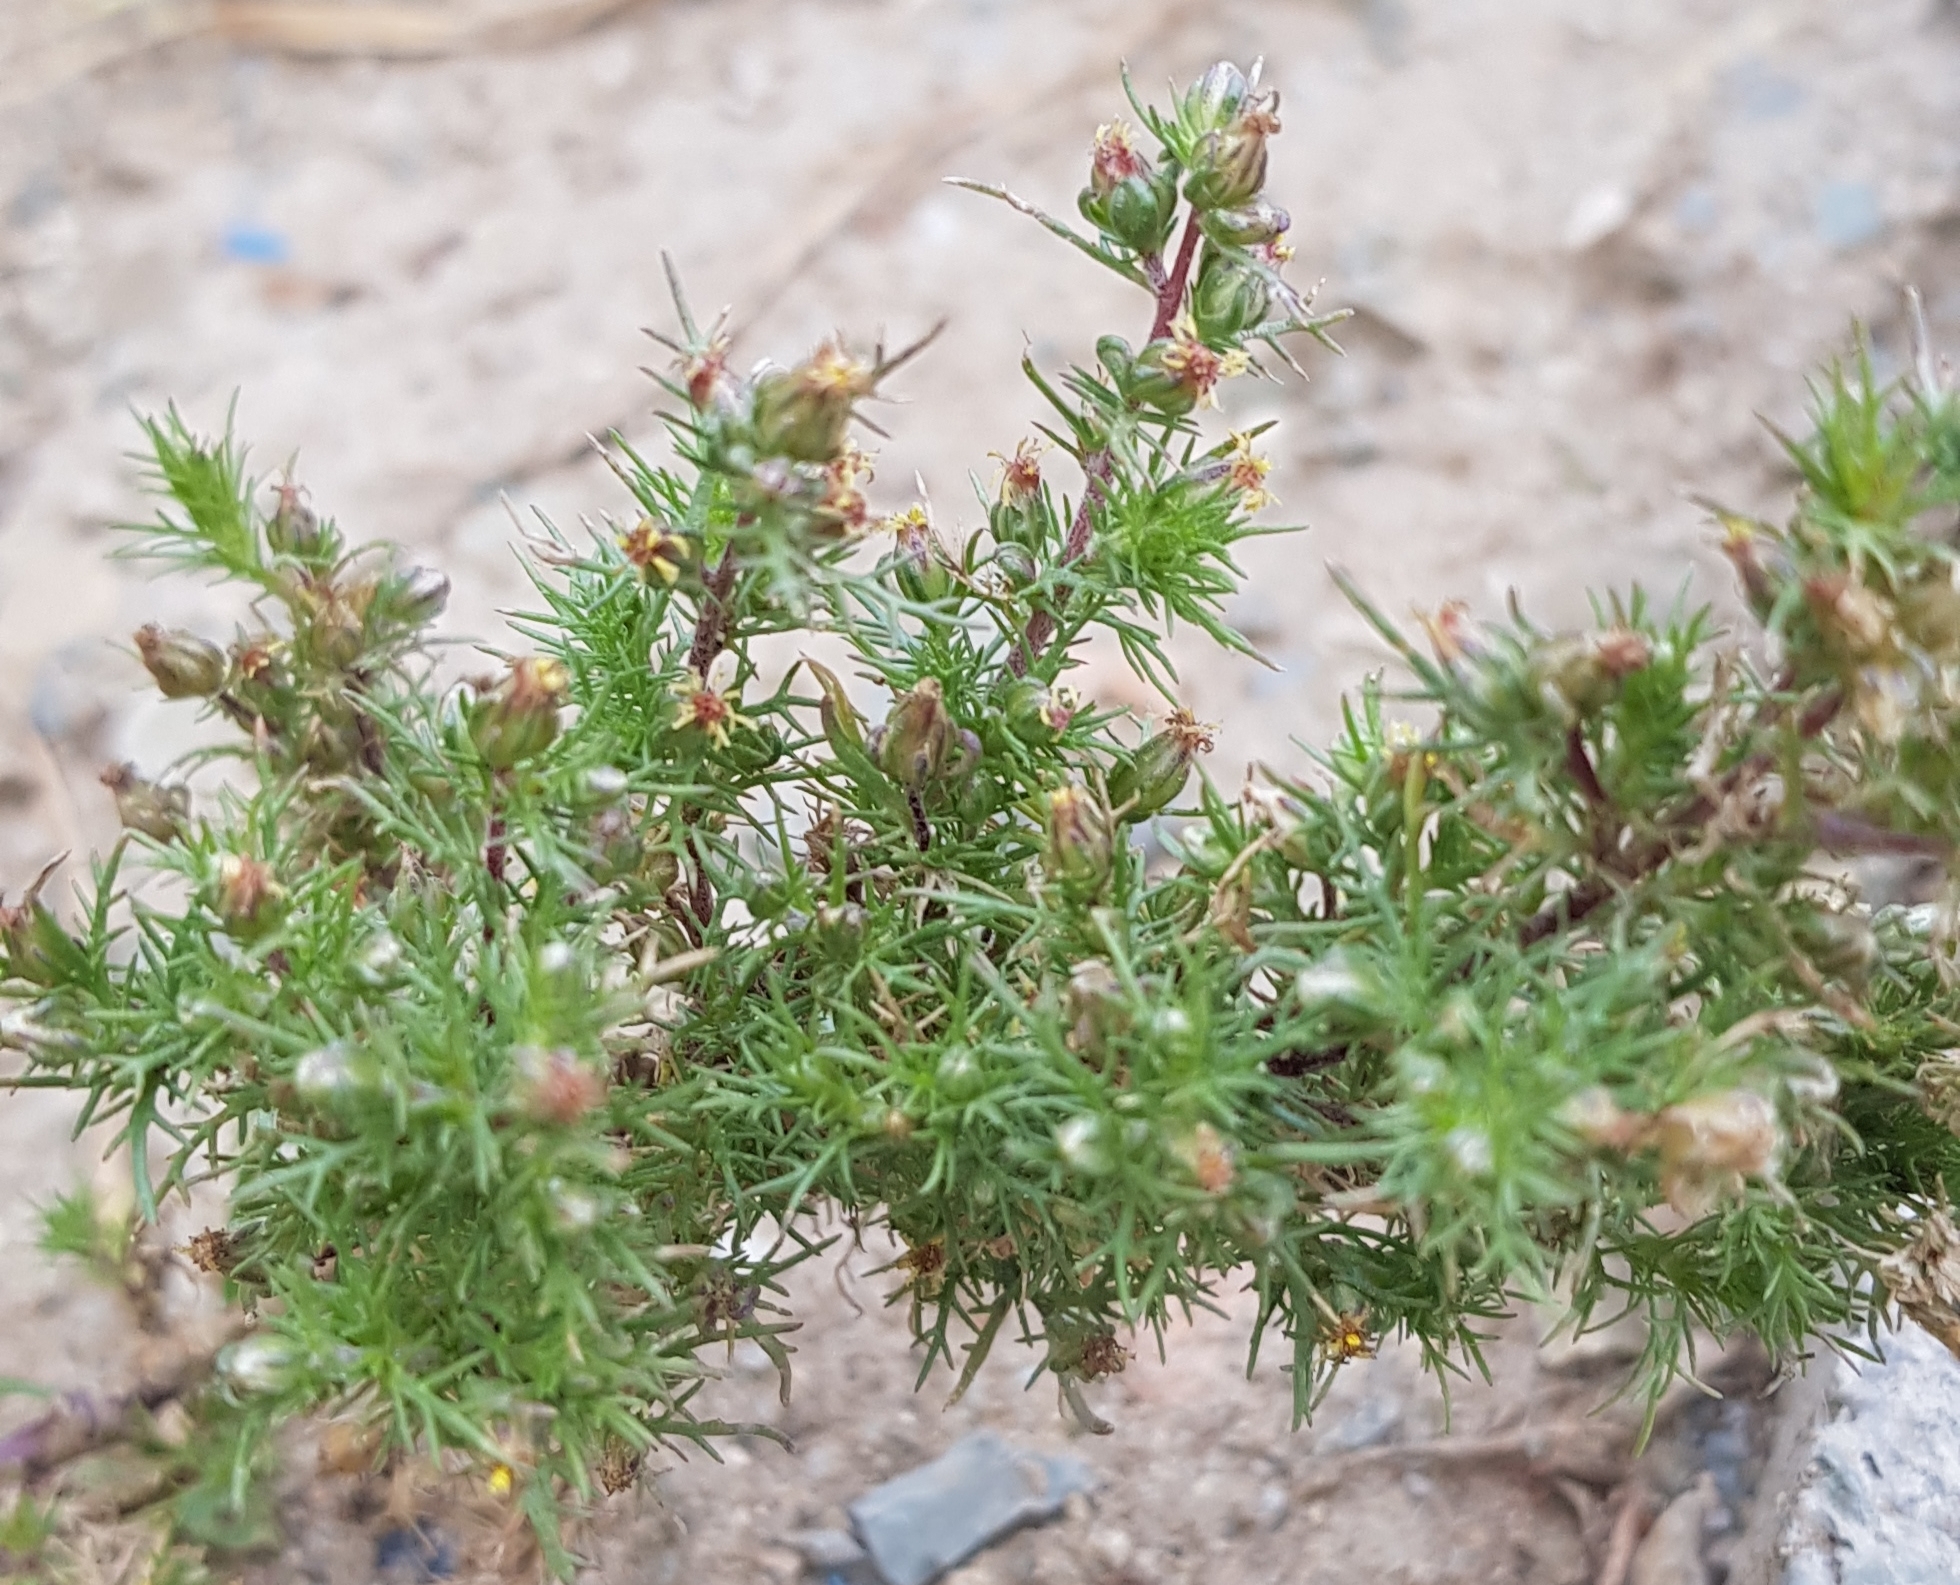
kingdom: Plantae
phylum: Tracheophyta
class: Magnoliopsida
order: Asterales
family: Asteraceae
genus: Neopallasia
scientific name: Neopallasia pectinata
